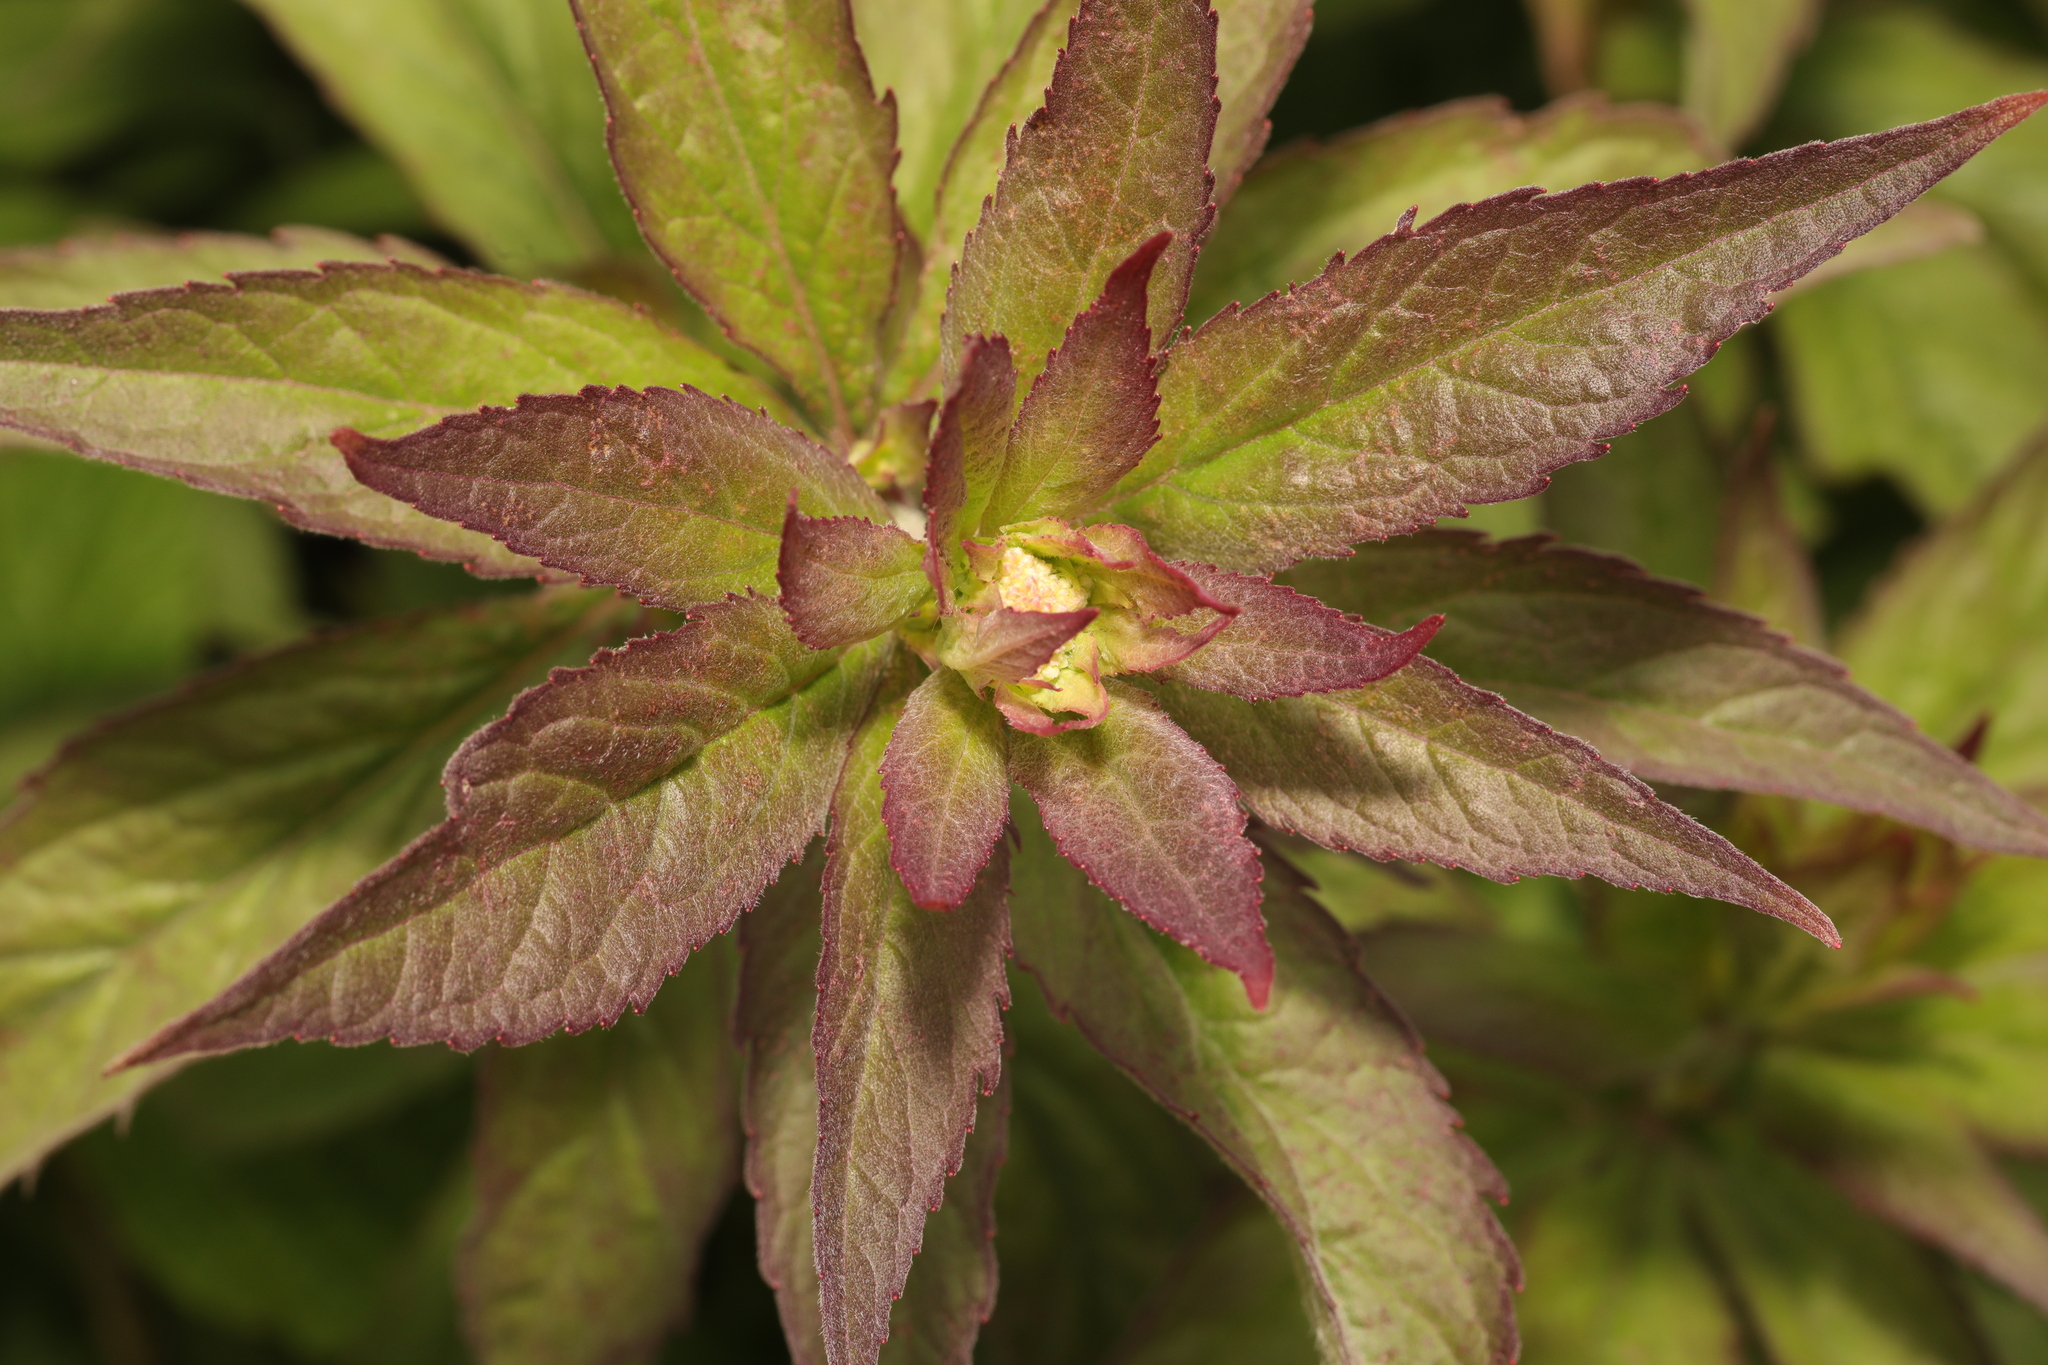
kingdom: Plantae
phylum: Tracheophyta
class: Magnoliopsida
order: Asterales
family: Asteraceae
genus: Eupatorium
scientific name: Eupatorium cannabinum
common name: Hemp-agrimony
